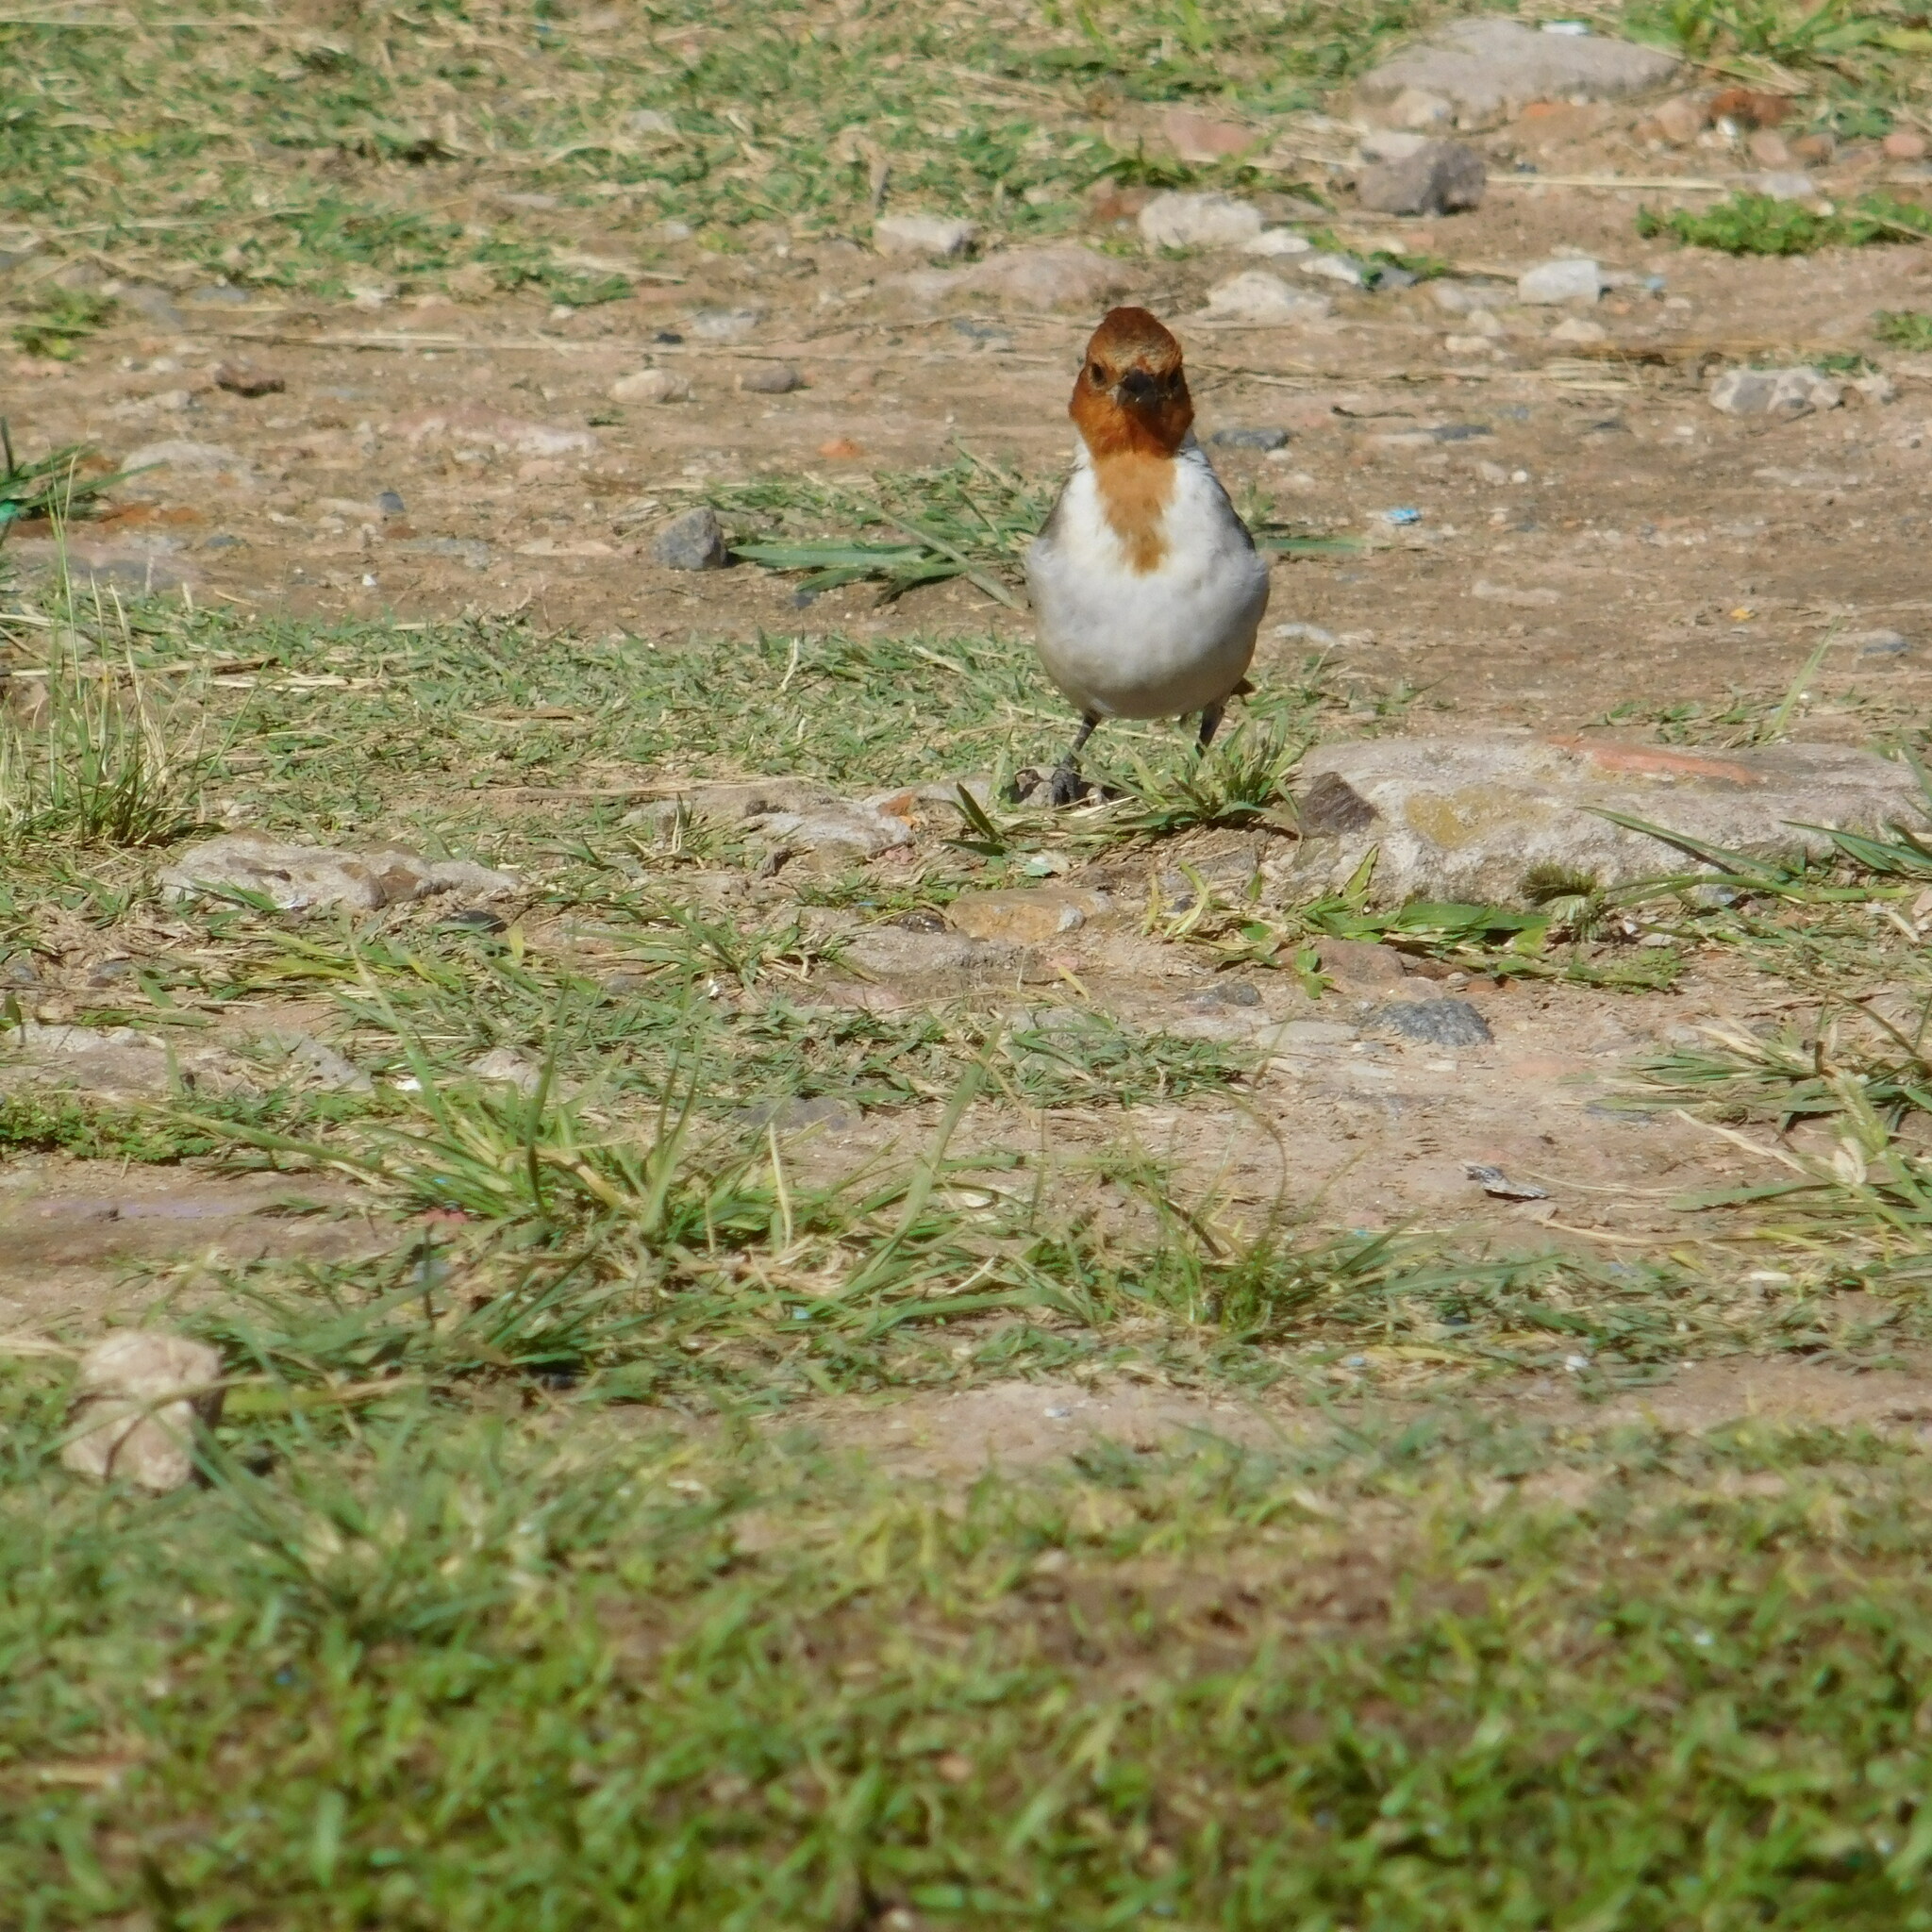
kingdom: Animalia
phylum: Chordata
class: Aves
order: Passeriformes
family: Thraupidae
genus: Paroaria
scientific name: Paroaria coronata
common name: Red-crested cardinal
